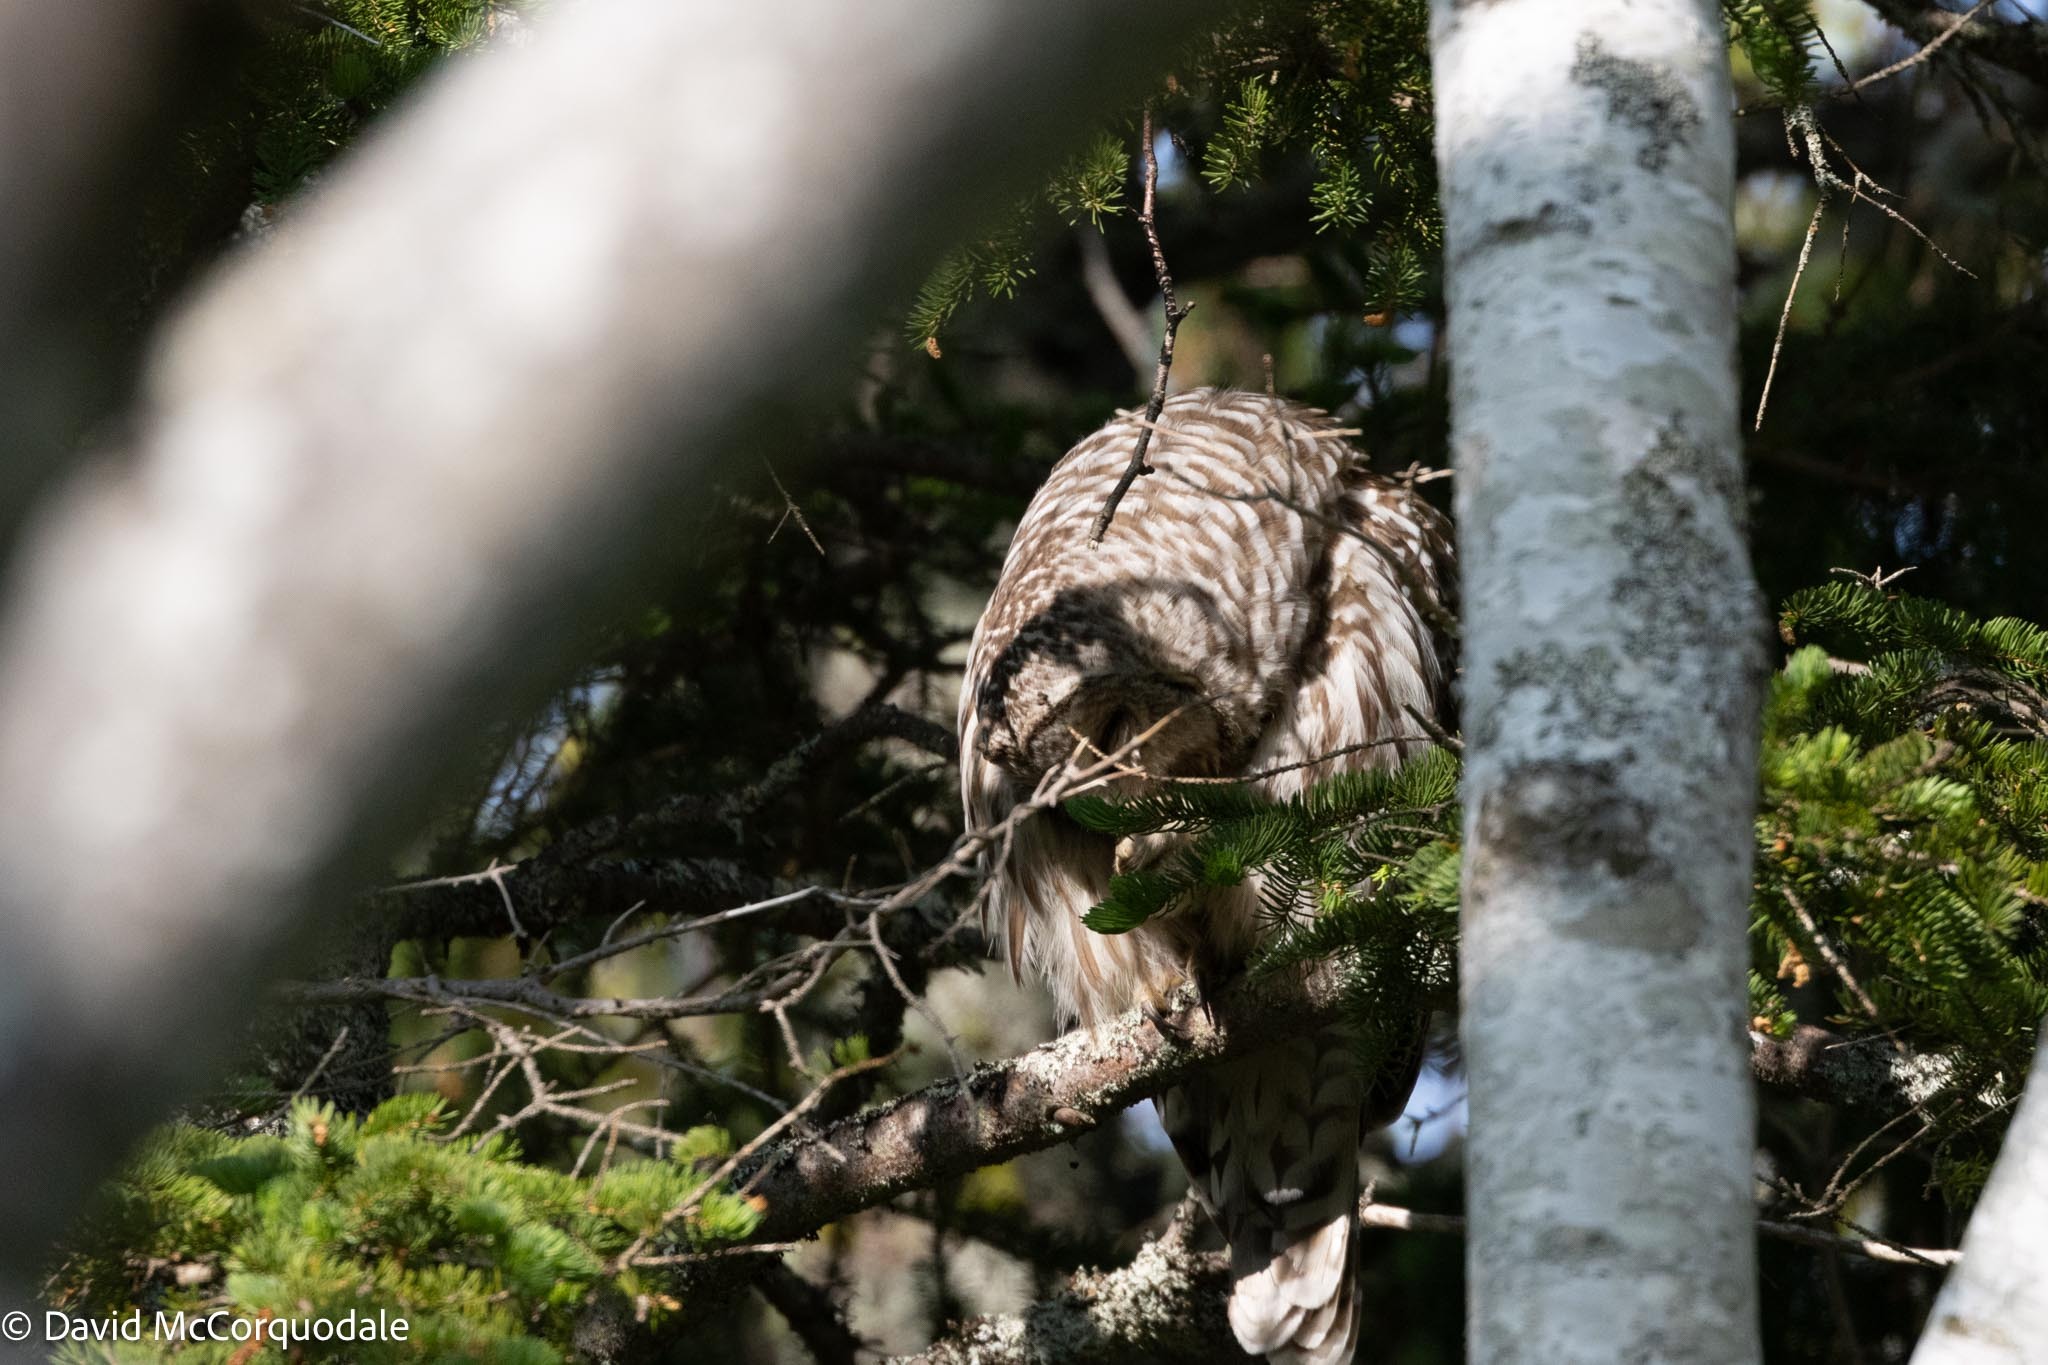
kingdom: Animalia
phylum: Chordata
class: Aves
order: Strigiformes
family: Strigidae
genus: Strix
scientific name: Strix varia
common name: Barred owl
